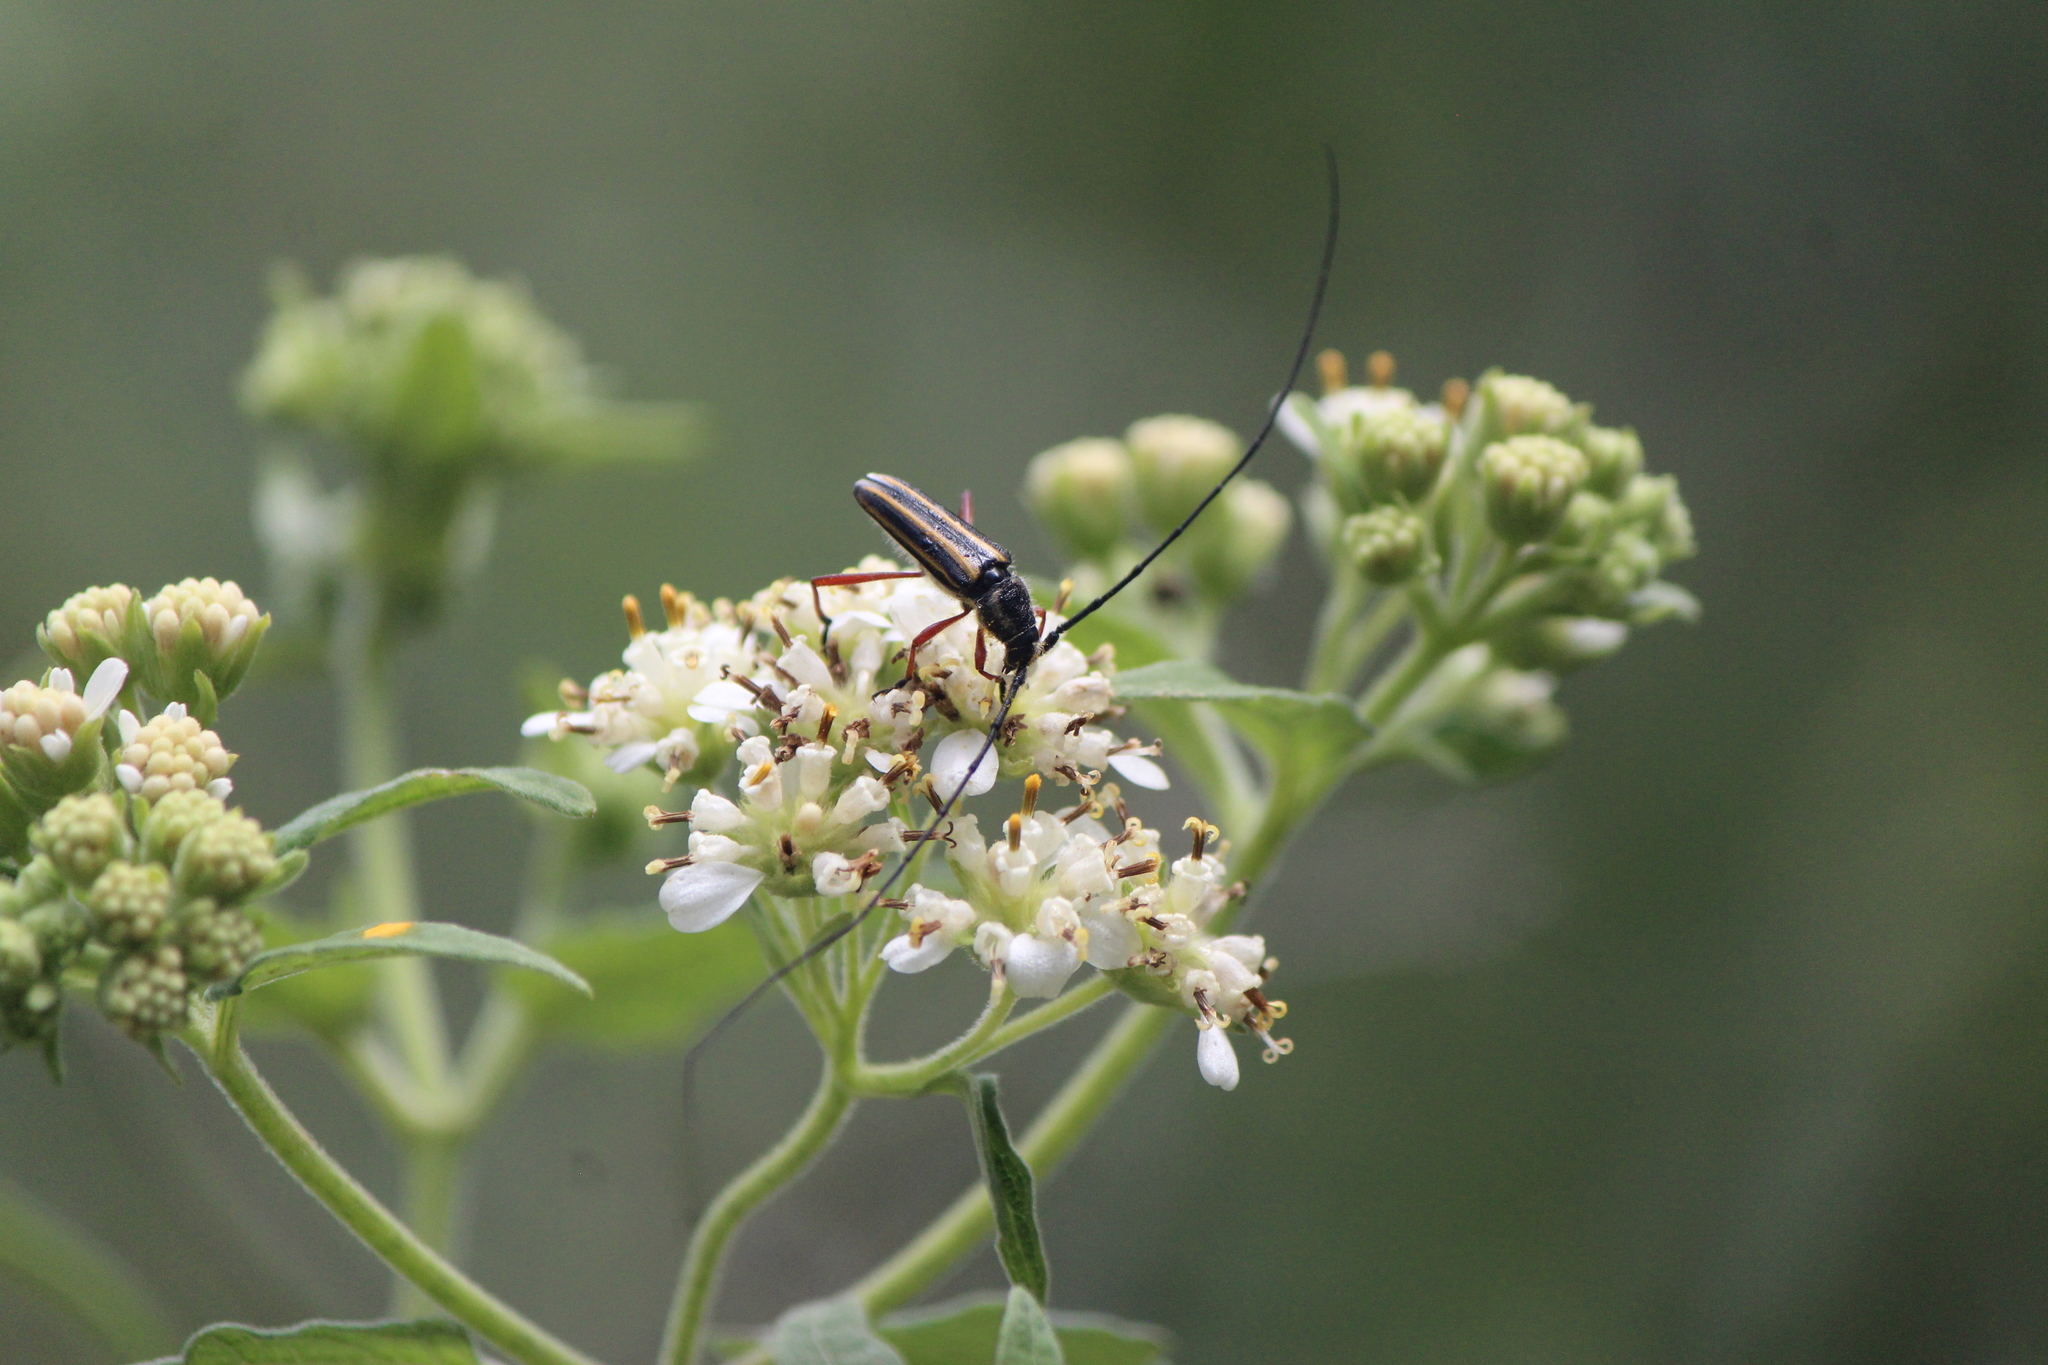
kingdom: Animalia
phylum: Arthropoda
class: Insecta
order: Coleoptera
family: Cerambycidae
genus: Sphaenothecus
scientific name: Sphaenothecus bilineatus
